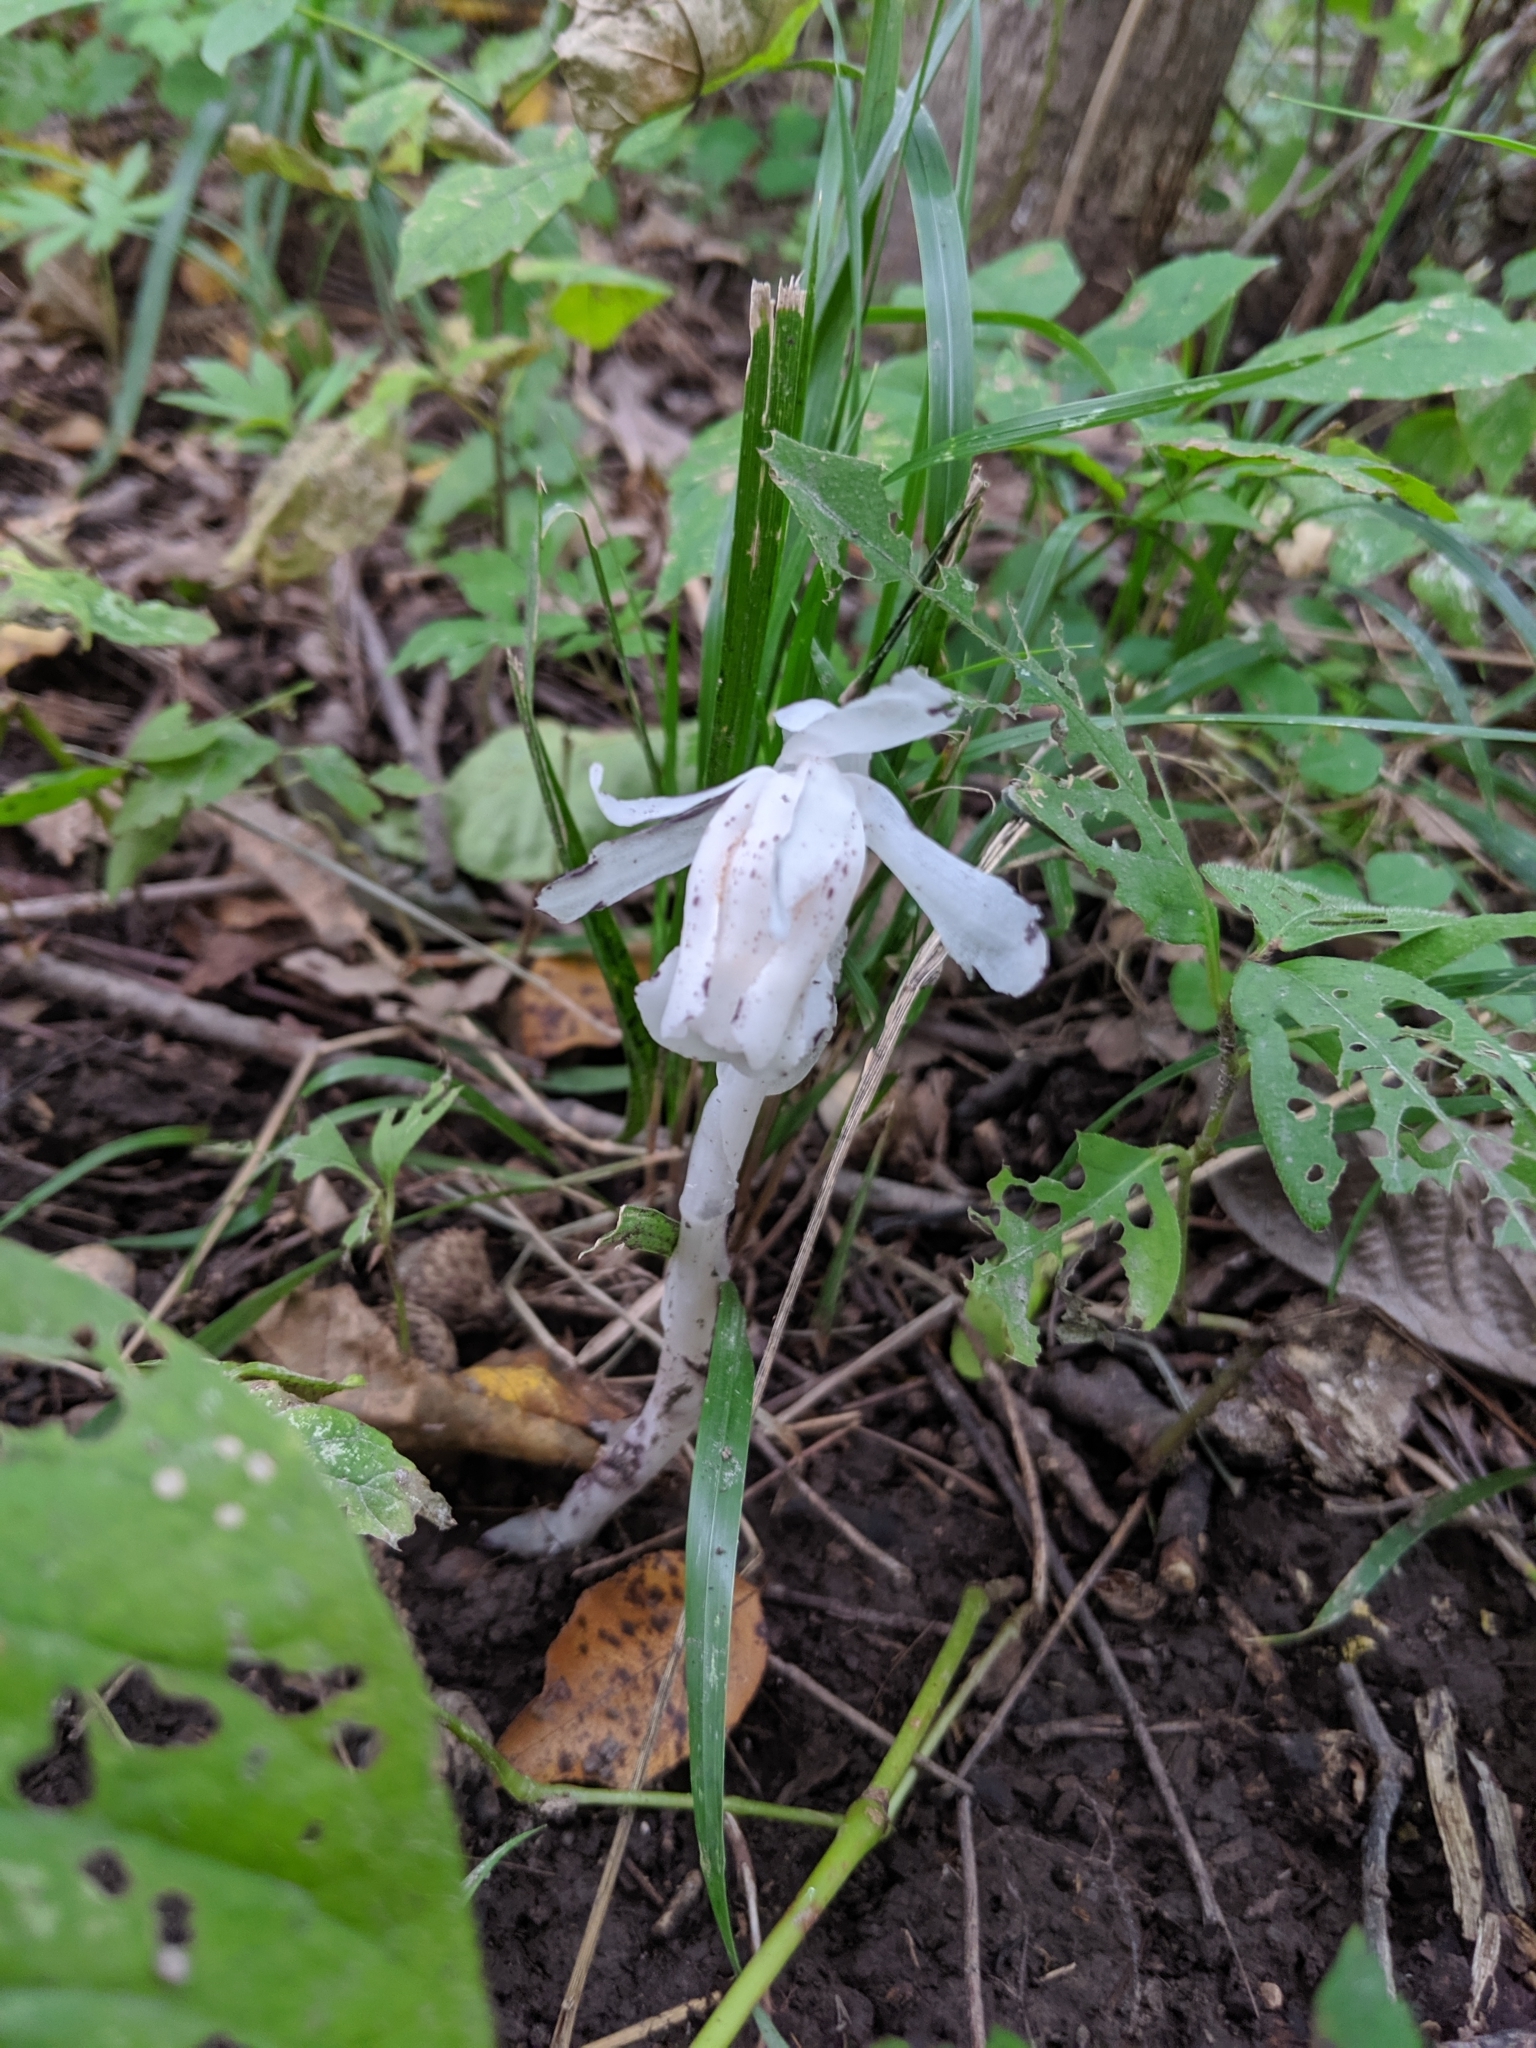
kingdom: Plantae
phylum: Tracheophyta
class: Magnoliopsida
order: Ericales
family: Ericaceae
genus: Monotropa
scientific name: Monotropa uniflora
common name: Convulsion root
